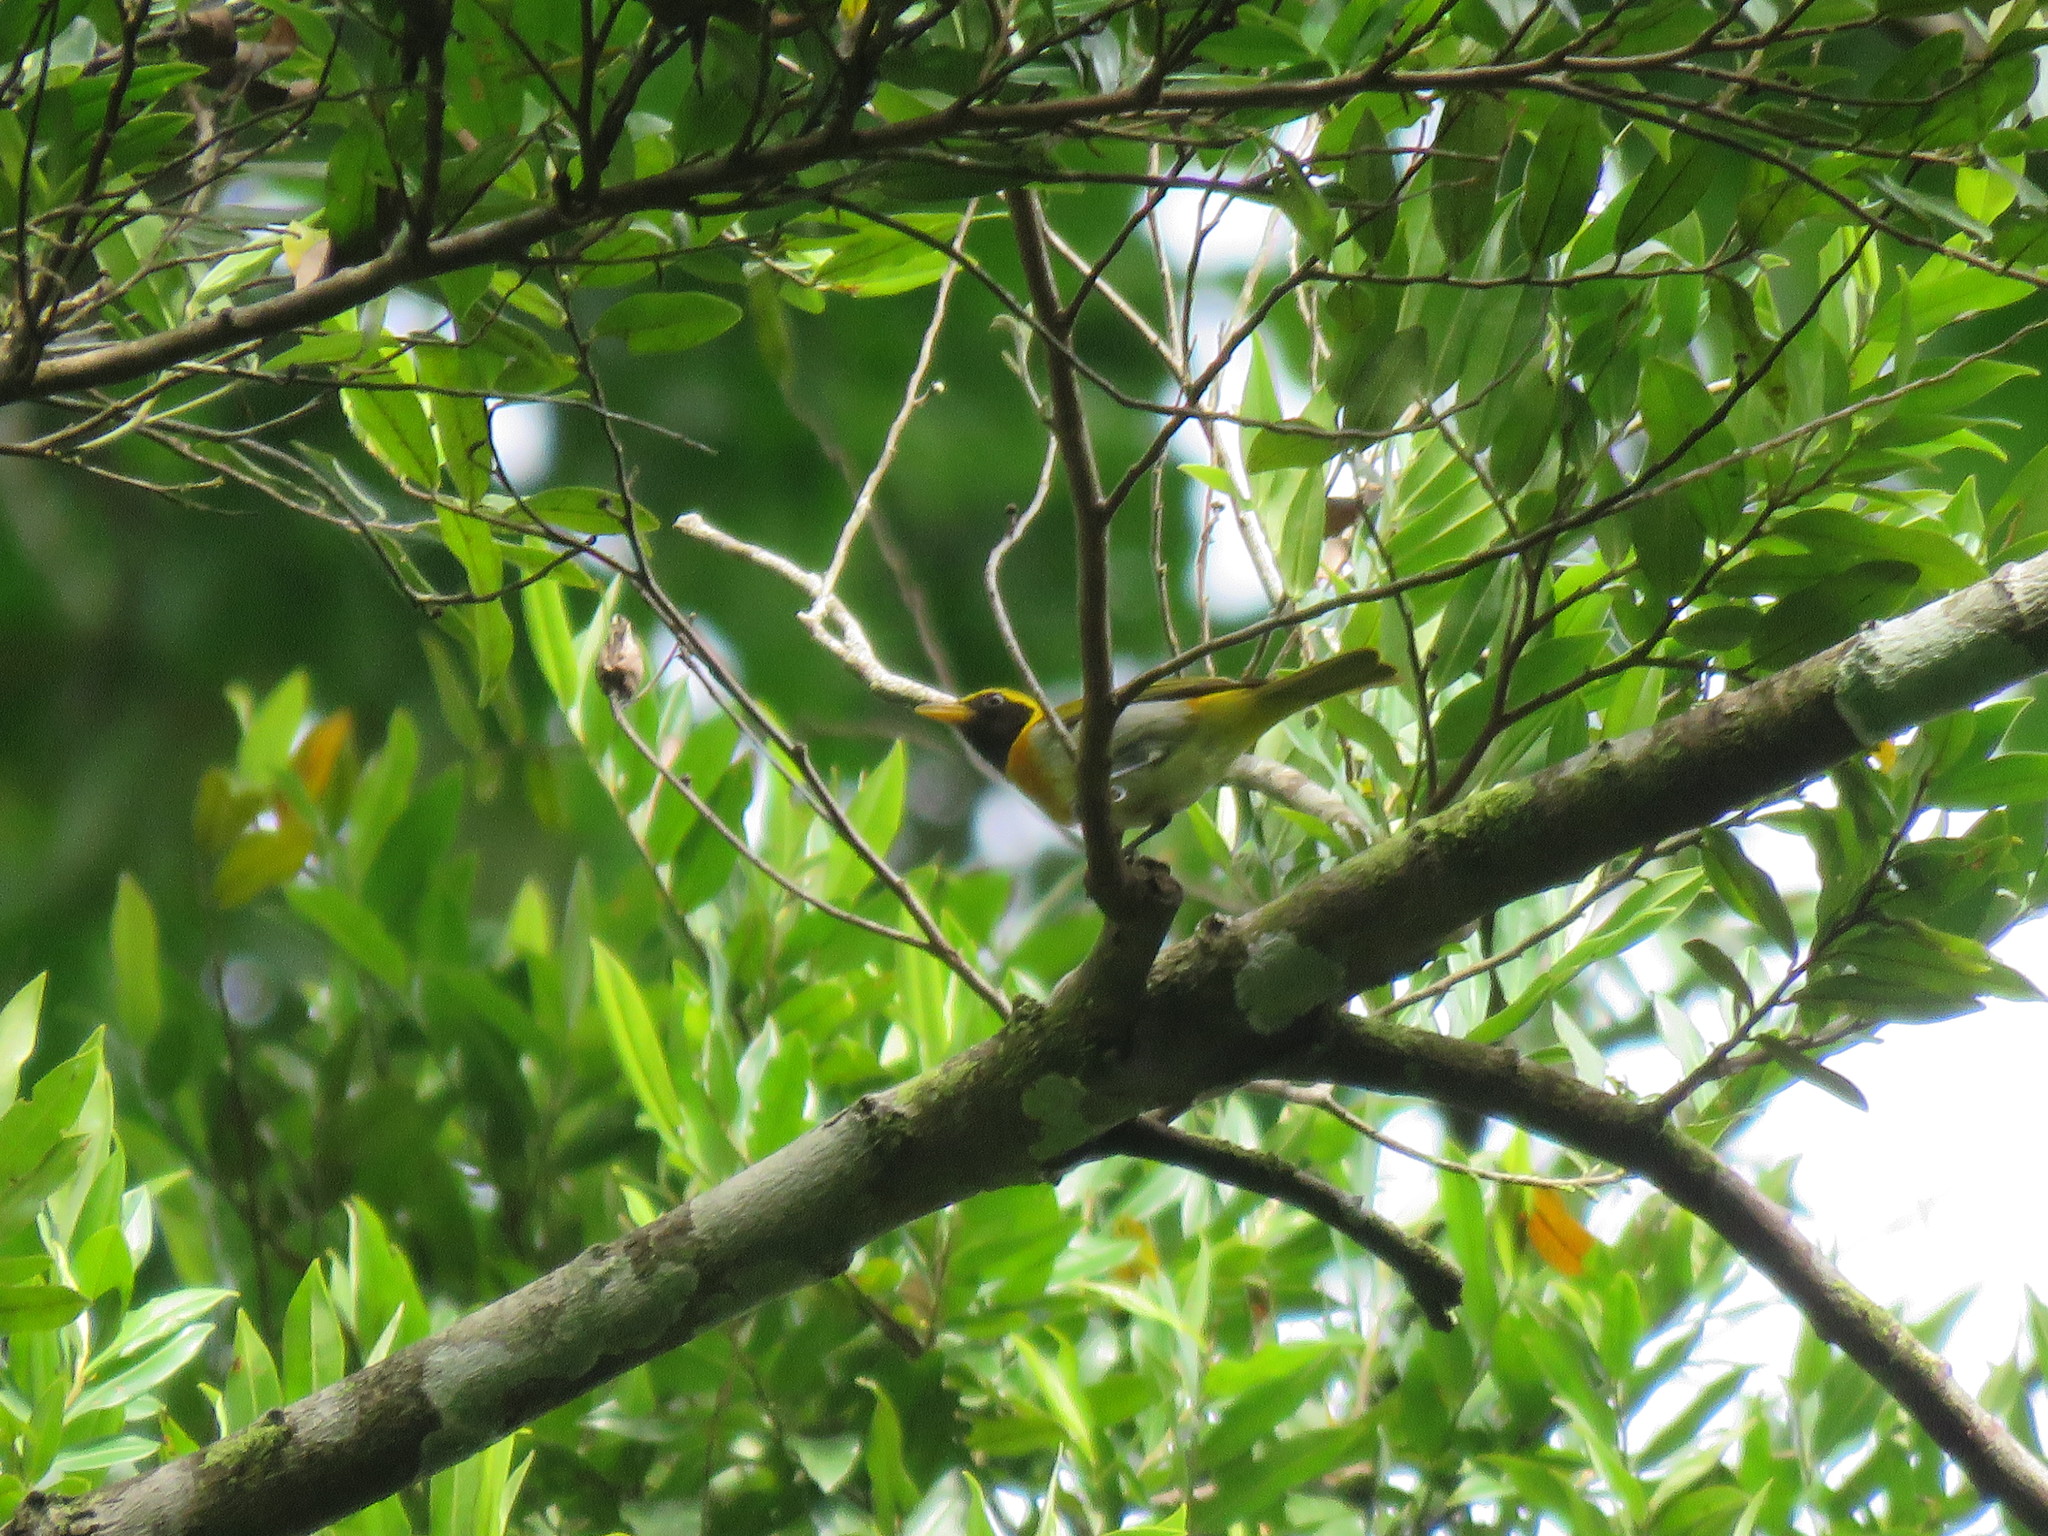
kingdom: Animalia
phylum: Chordata
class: Aves
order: Passeriformes
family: Thraupidae
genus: Hemithraupis
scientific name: Hemithraupis guira
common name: Guira tanager
